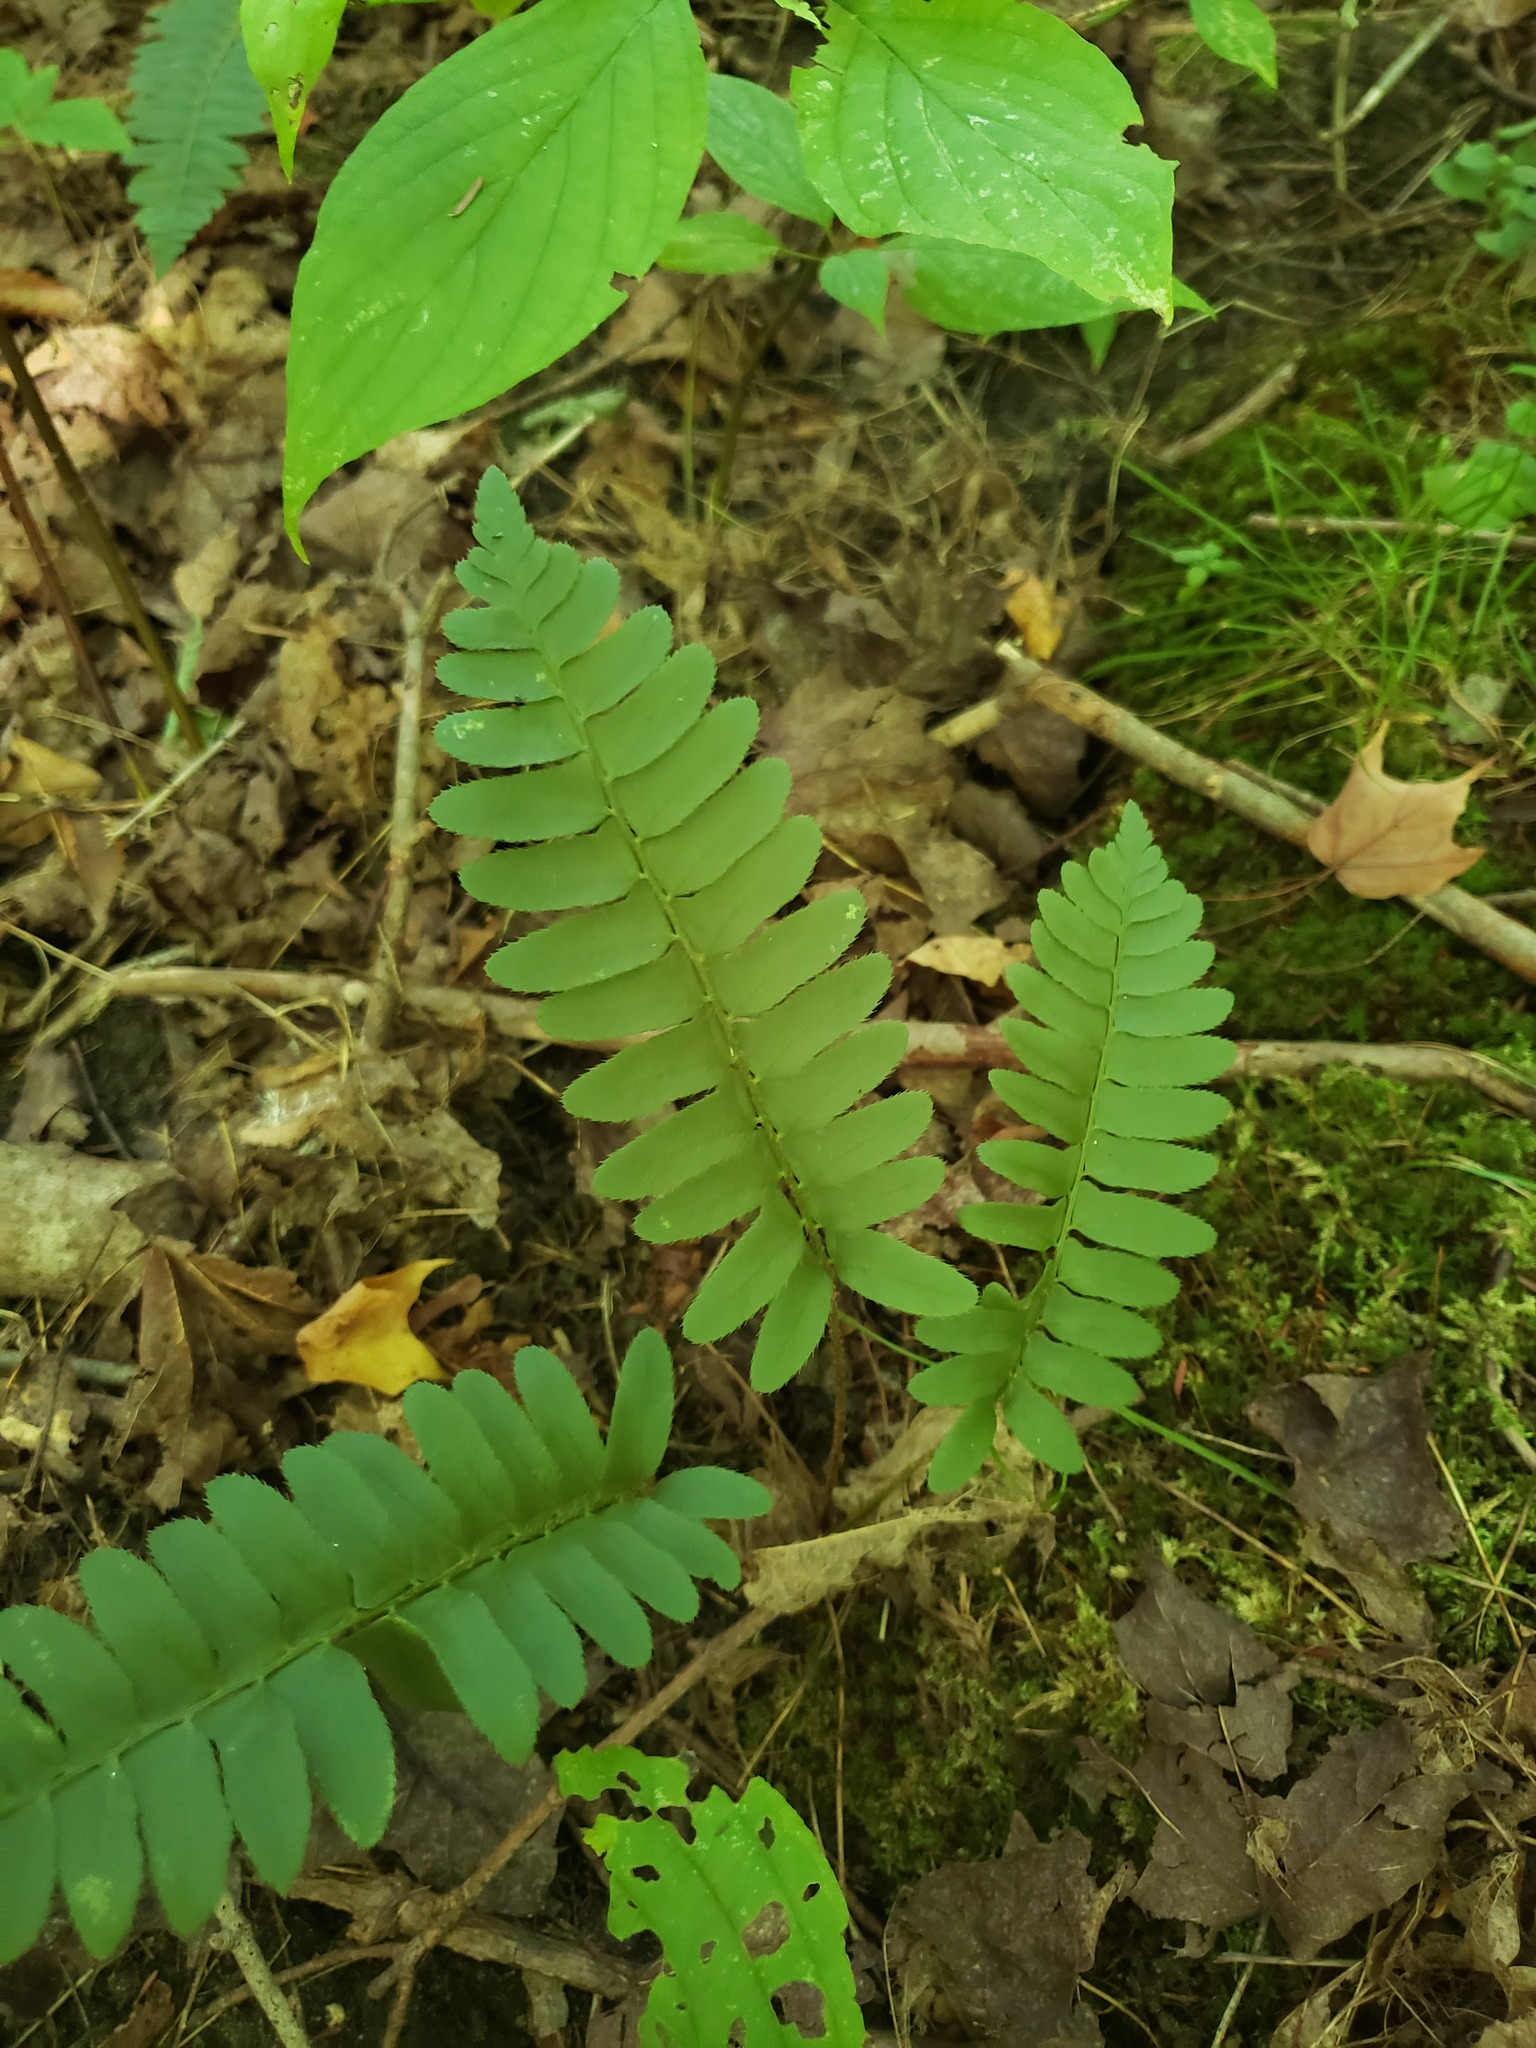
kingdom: Plantae
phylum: Tracheophyta
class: Polypodiopsida
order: Polypodiales
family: Dryopteridaceae
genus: Polystichum
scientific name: Polystichum acrostichoides
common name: Christmas fern
